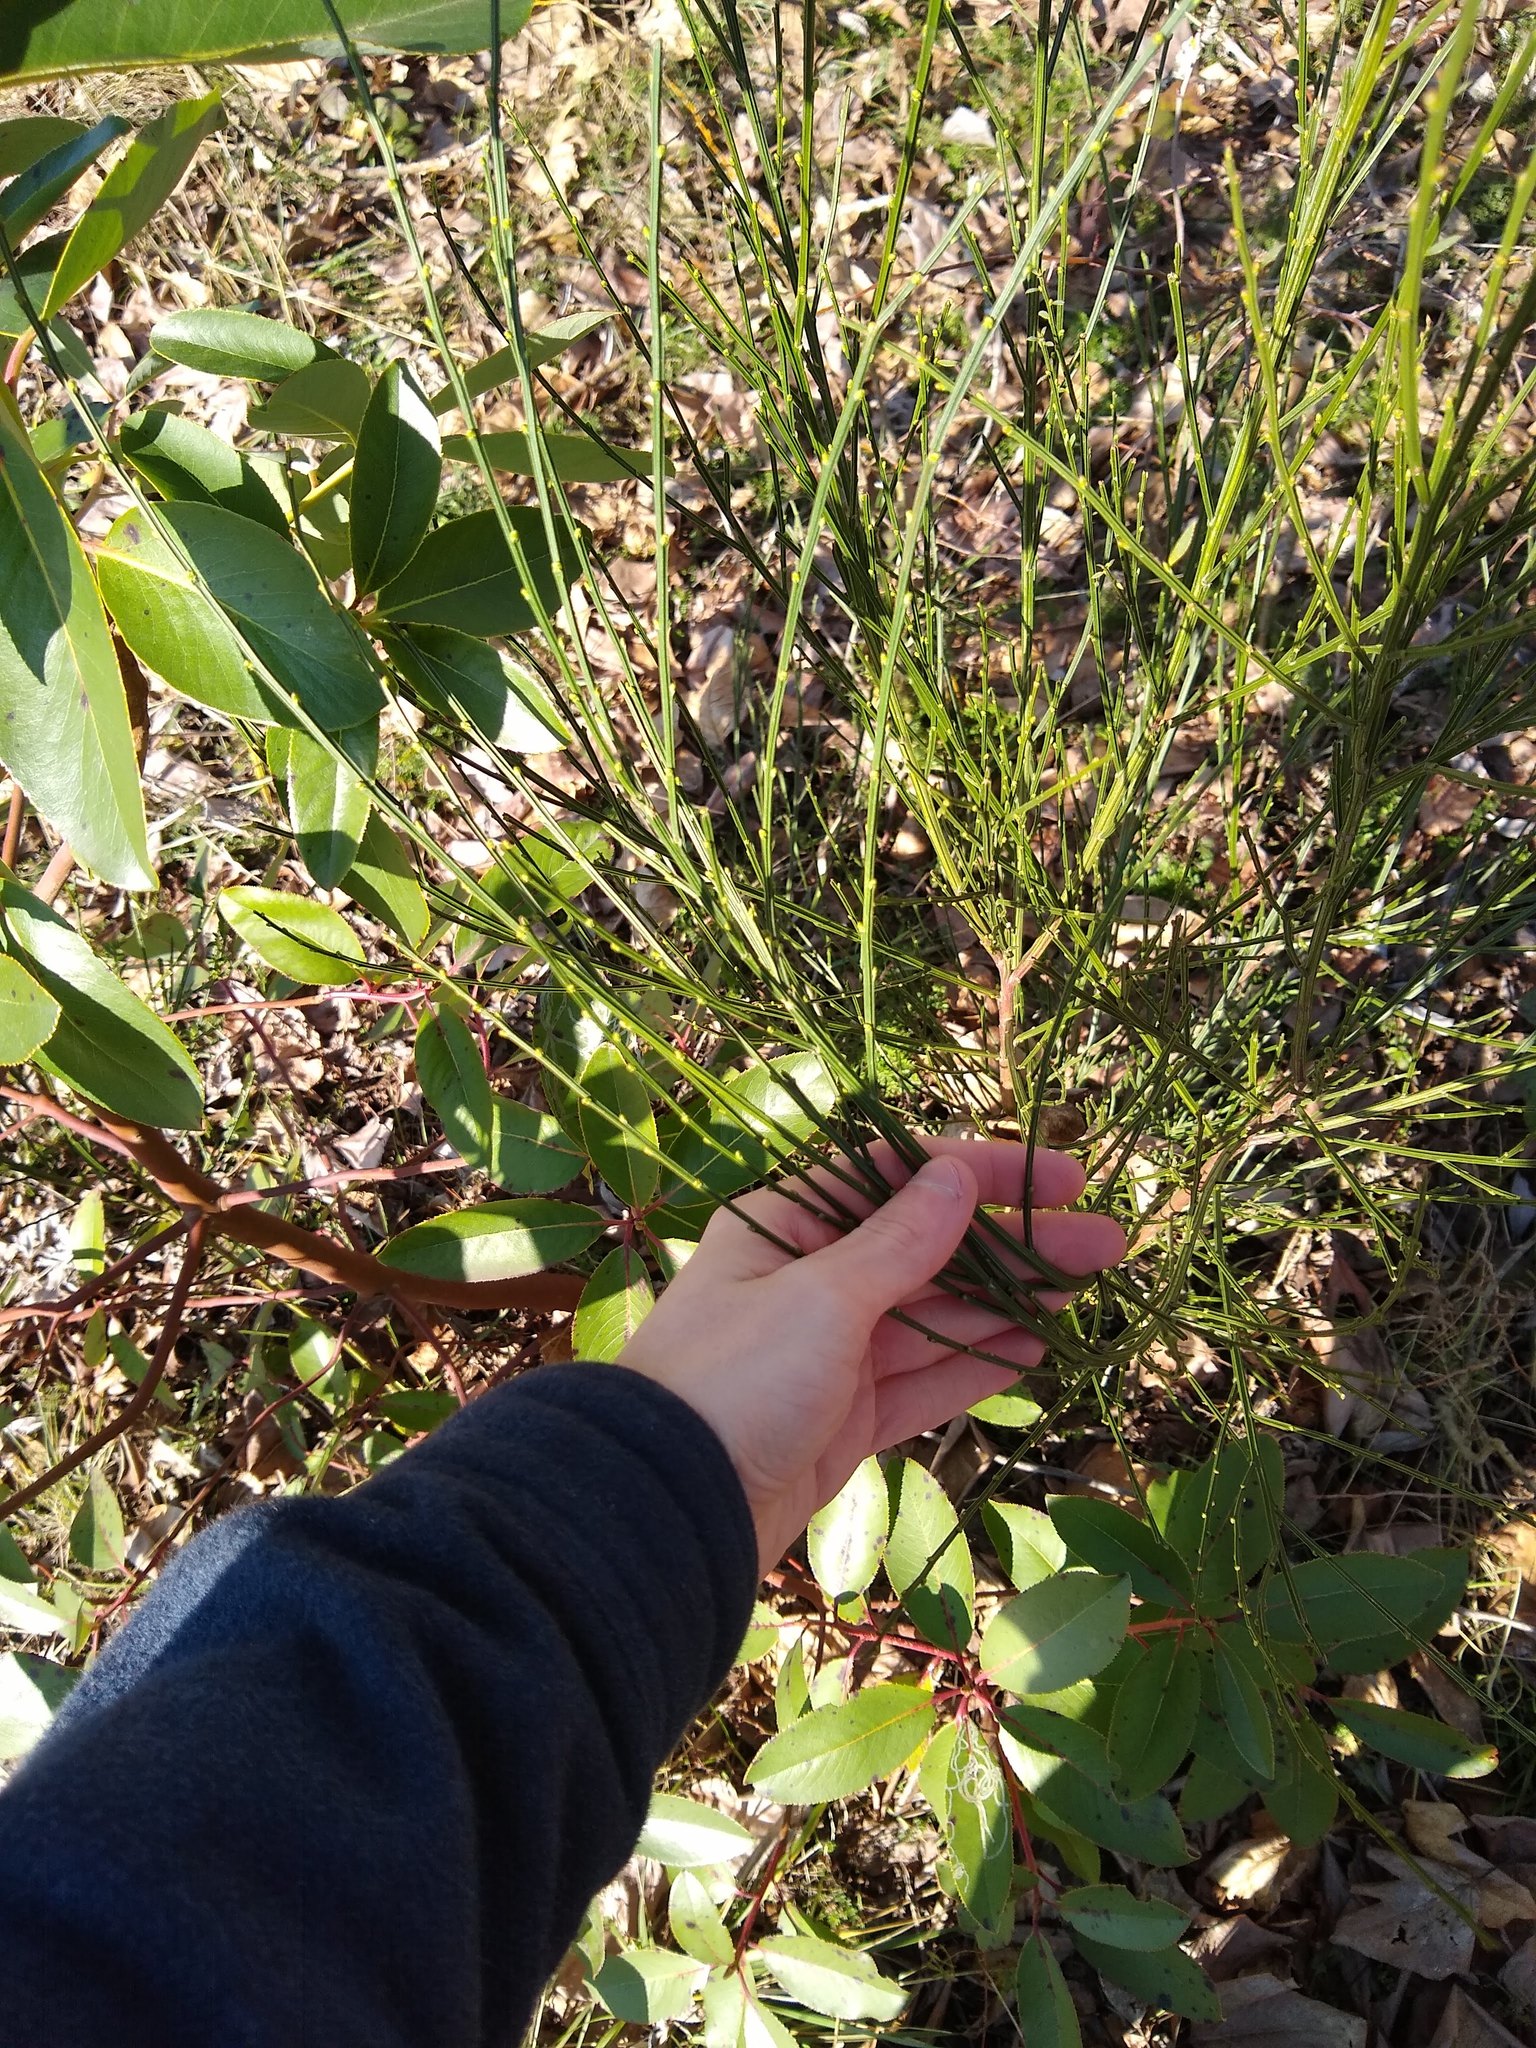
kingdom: Plantae
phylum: Tracheophyta
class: Magnoliopsida
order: Fabales
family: Fabaceae
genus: Cytisus
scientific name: Cytisus scoparius
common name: Scotch broom
